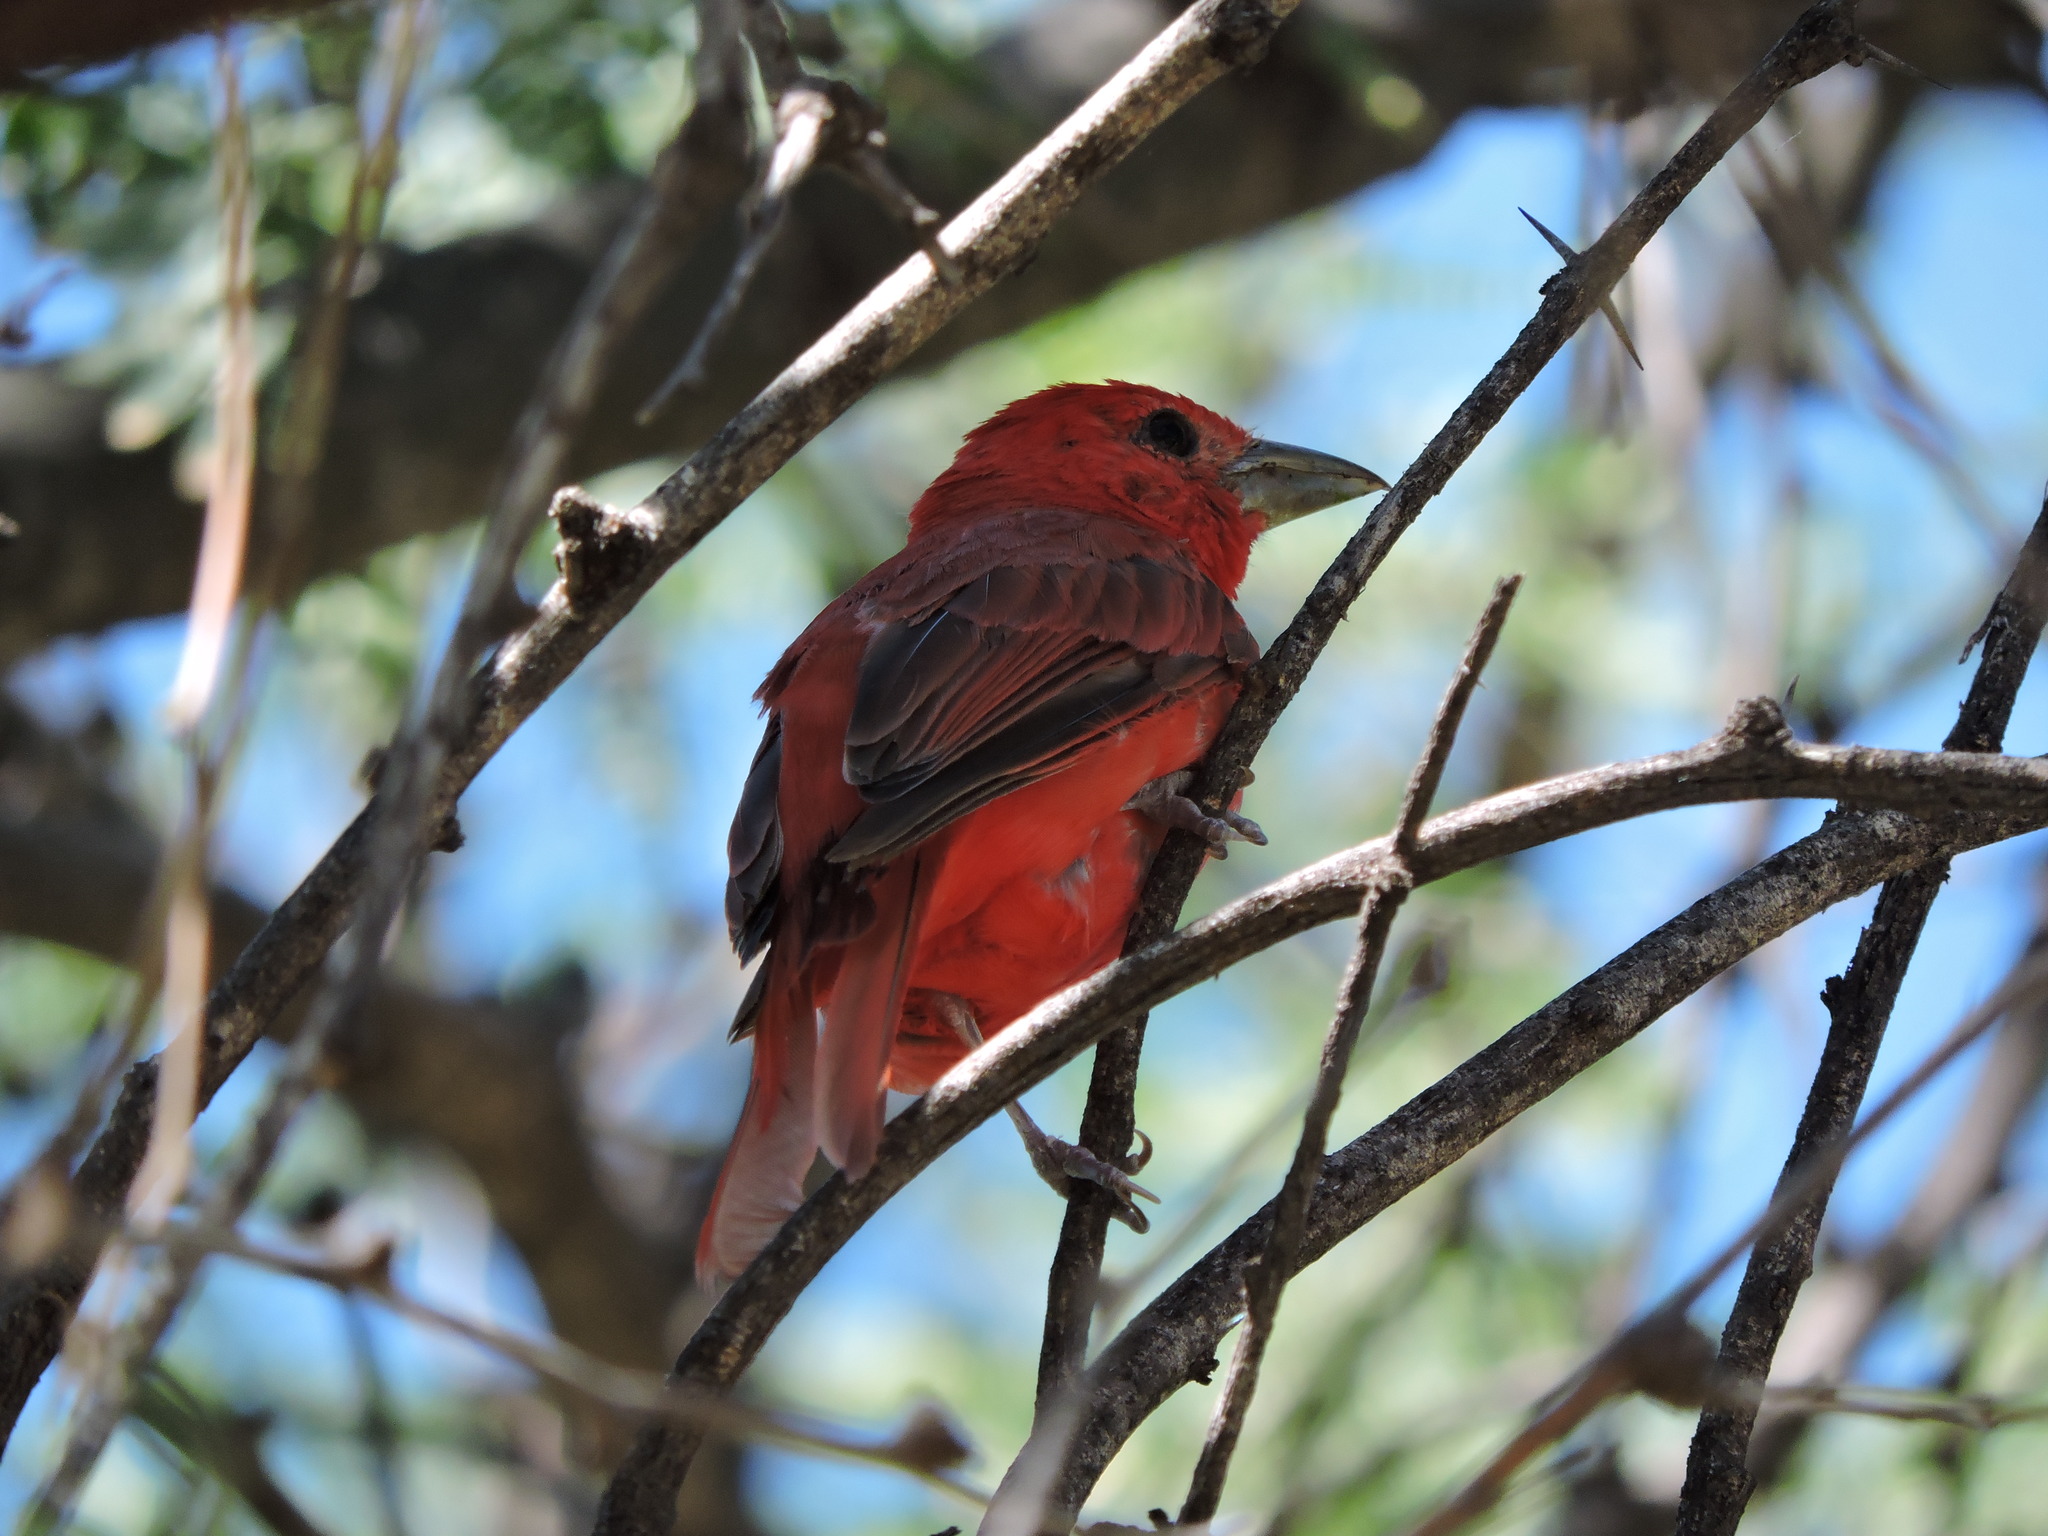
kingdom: Animalia
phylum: Chordata
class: Aves
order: Passeriformes
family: Cardinalidae
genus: Piranga
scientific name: Piranga rubra
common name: Summer tanager
